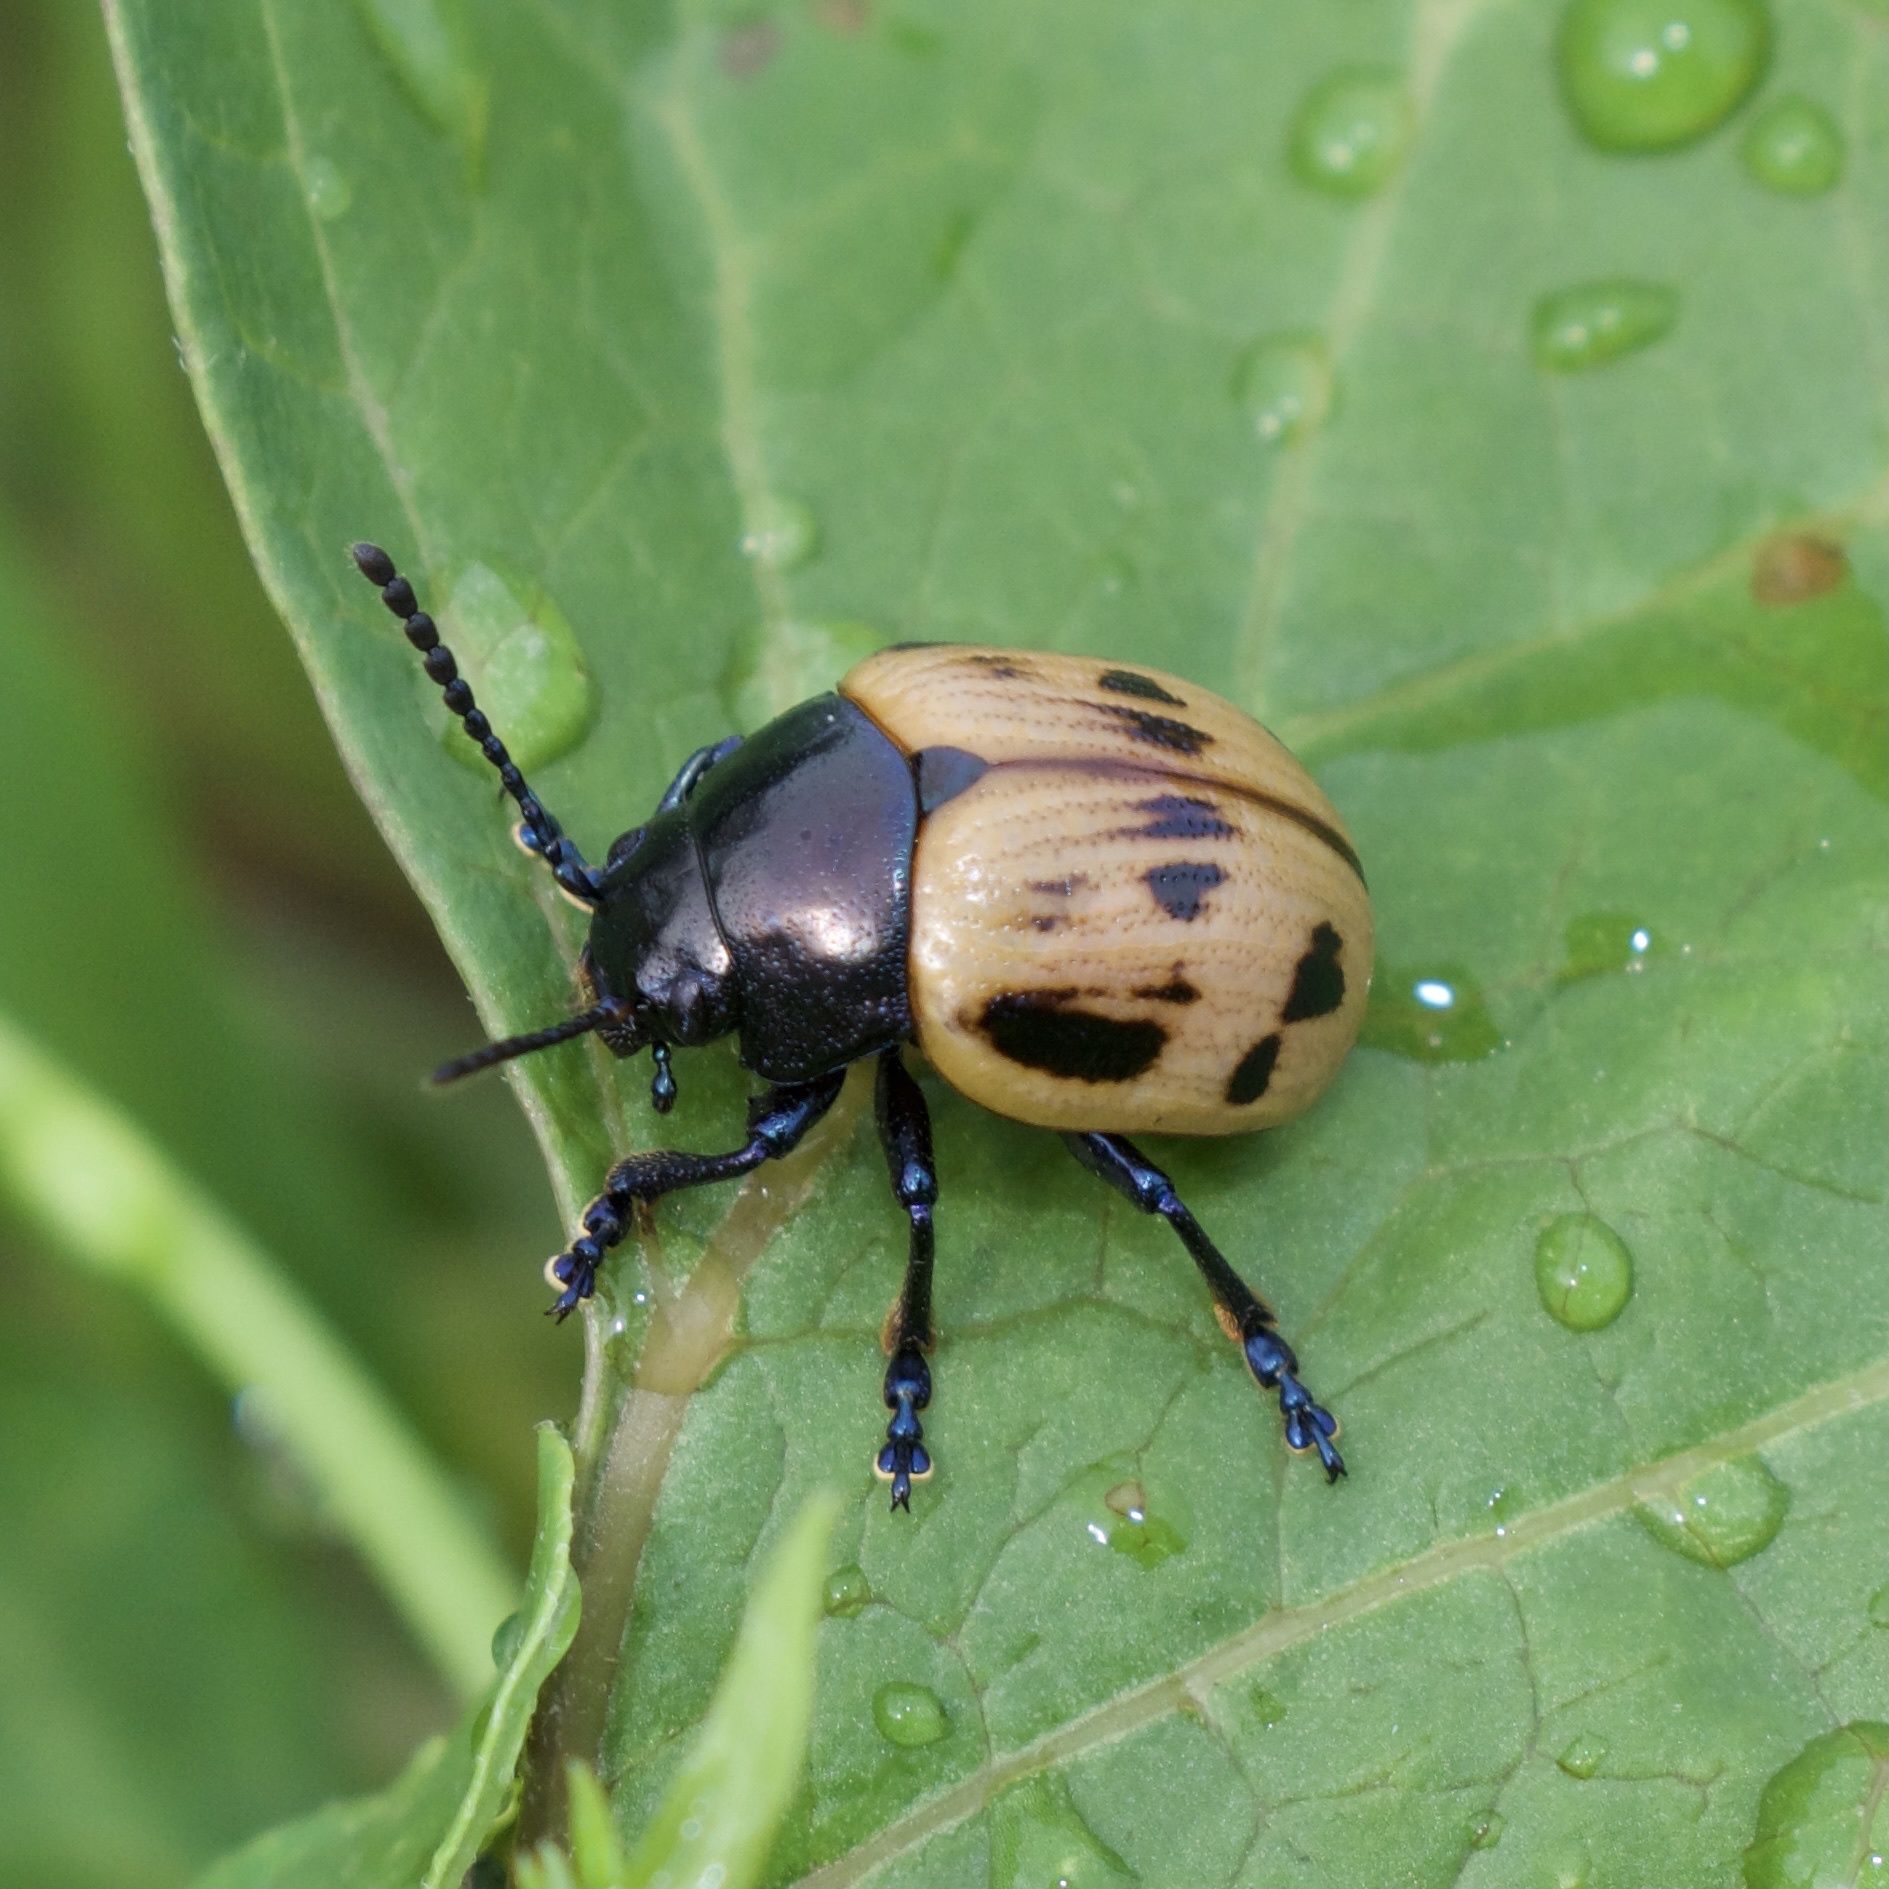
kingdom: Animalia
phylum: Arthropoda
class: Insecta
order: Coleoptera
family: Chrysomelidae
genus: Labidomera
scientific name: Labidomera clivicollis
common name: Swamp milkweed leaf beetle
